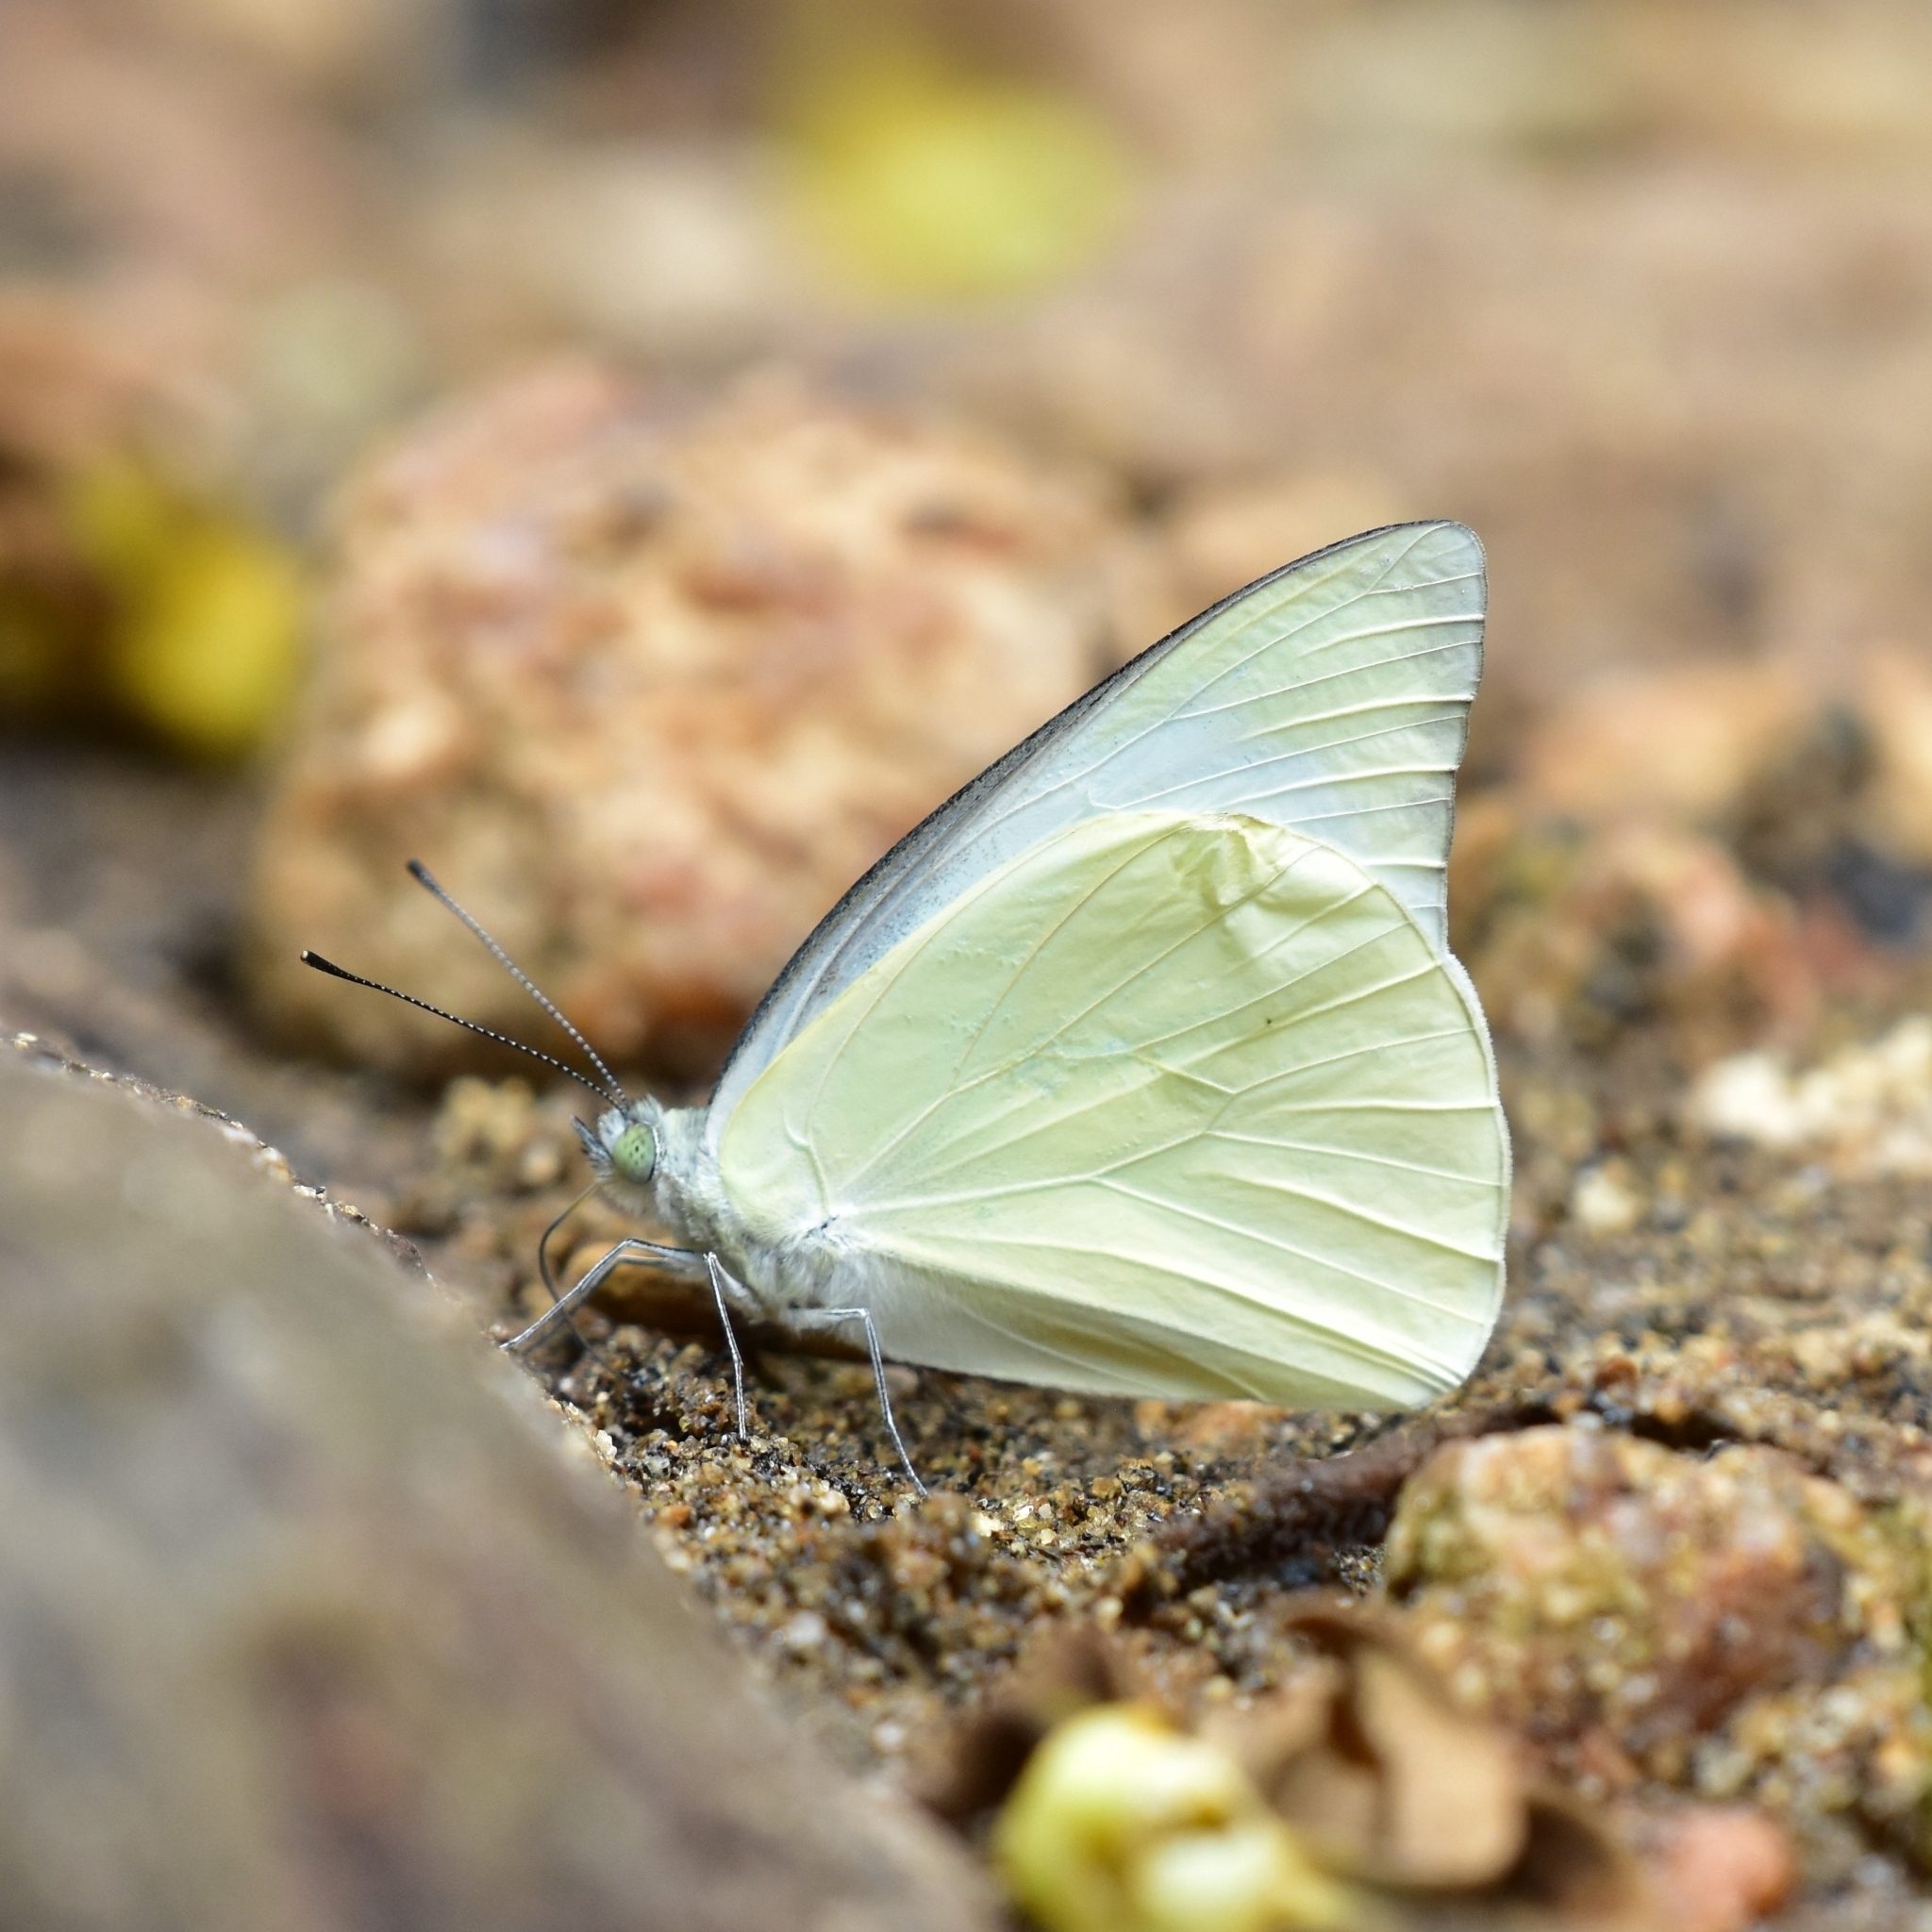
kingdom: Animalia
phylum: Arthropoda
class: Insecta
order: Lepidoptera
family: Pieridae
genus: Appias
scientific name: Appias albina
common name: Common albatross
